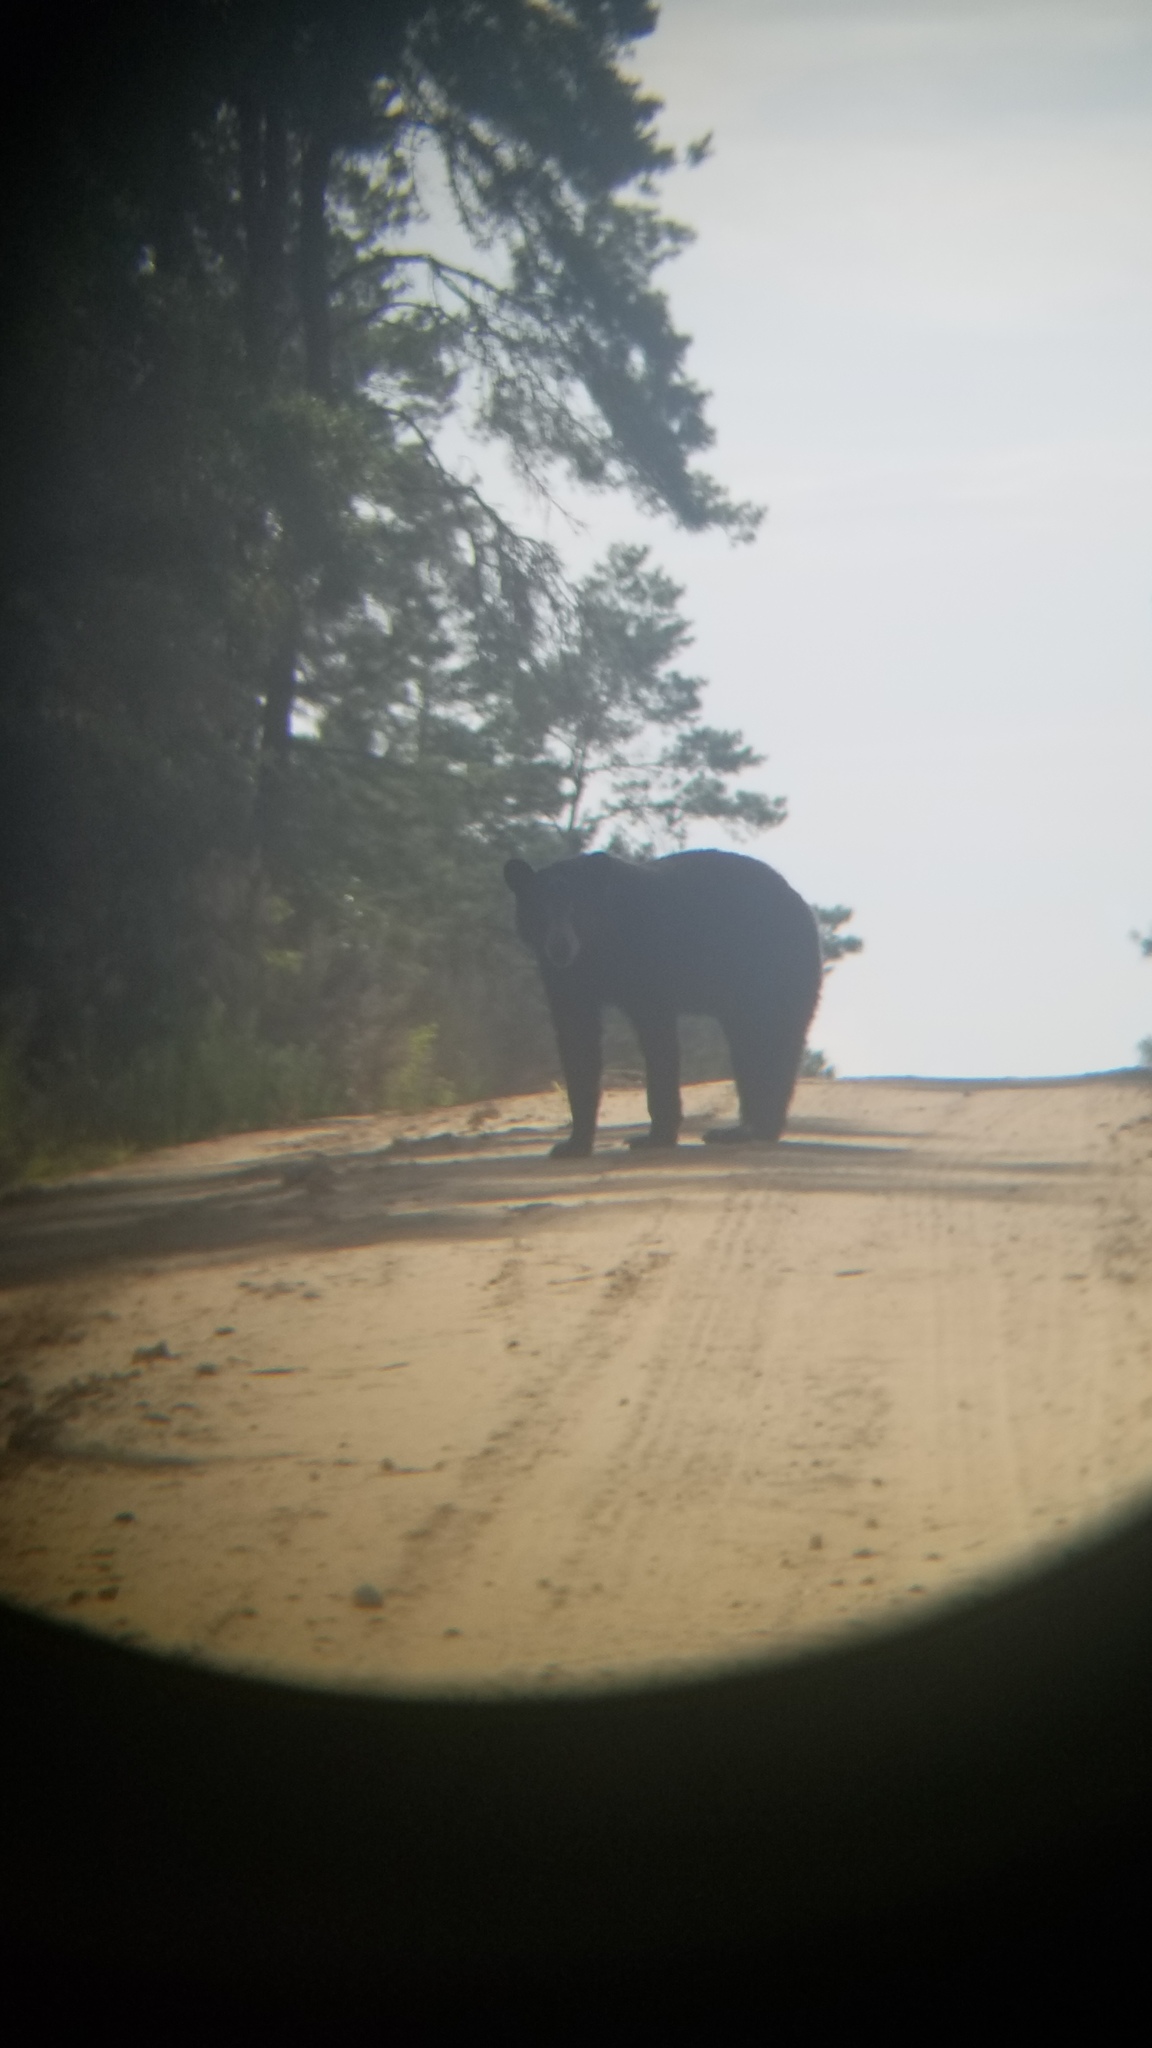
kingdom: Animalia
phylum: Chordata
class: Mammalia
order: Carnivora
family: Ursidae
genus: Ursus
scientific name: Ursus americanus
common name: American black bear
